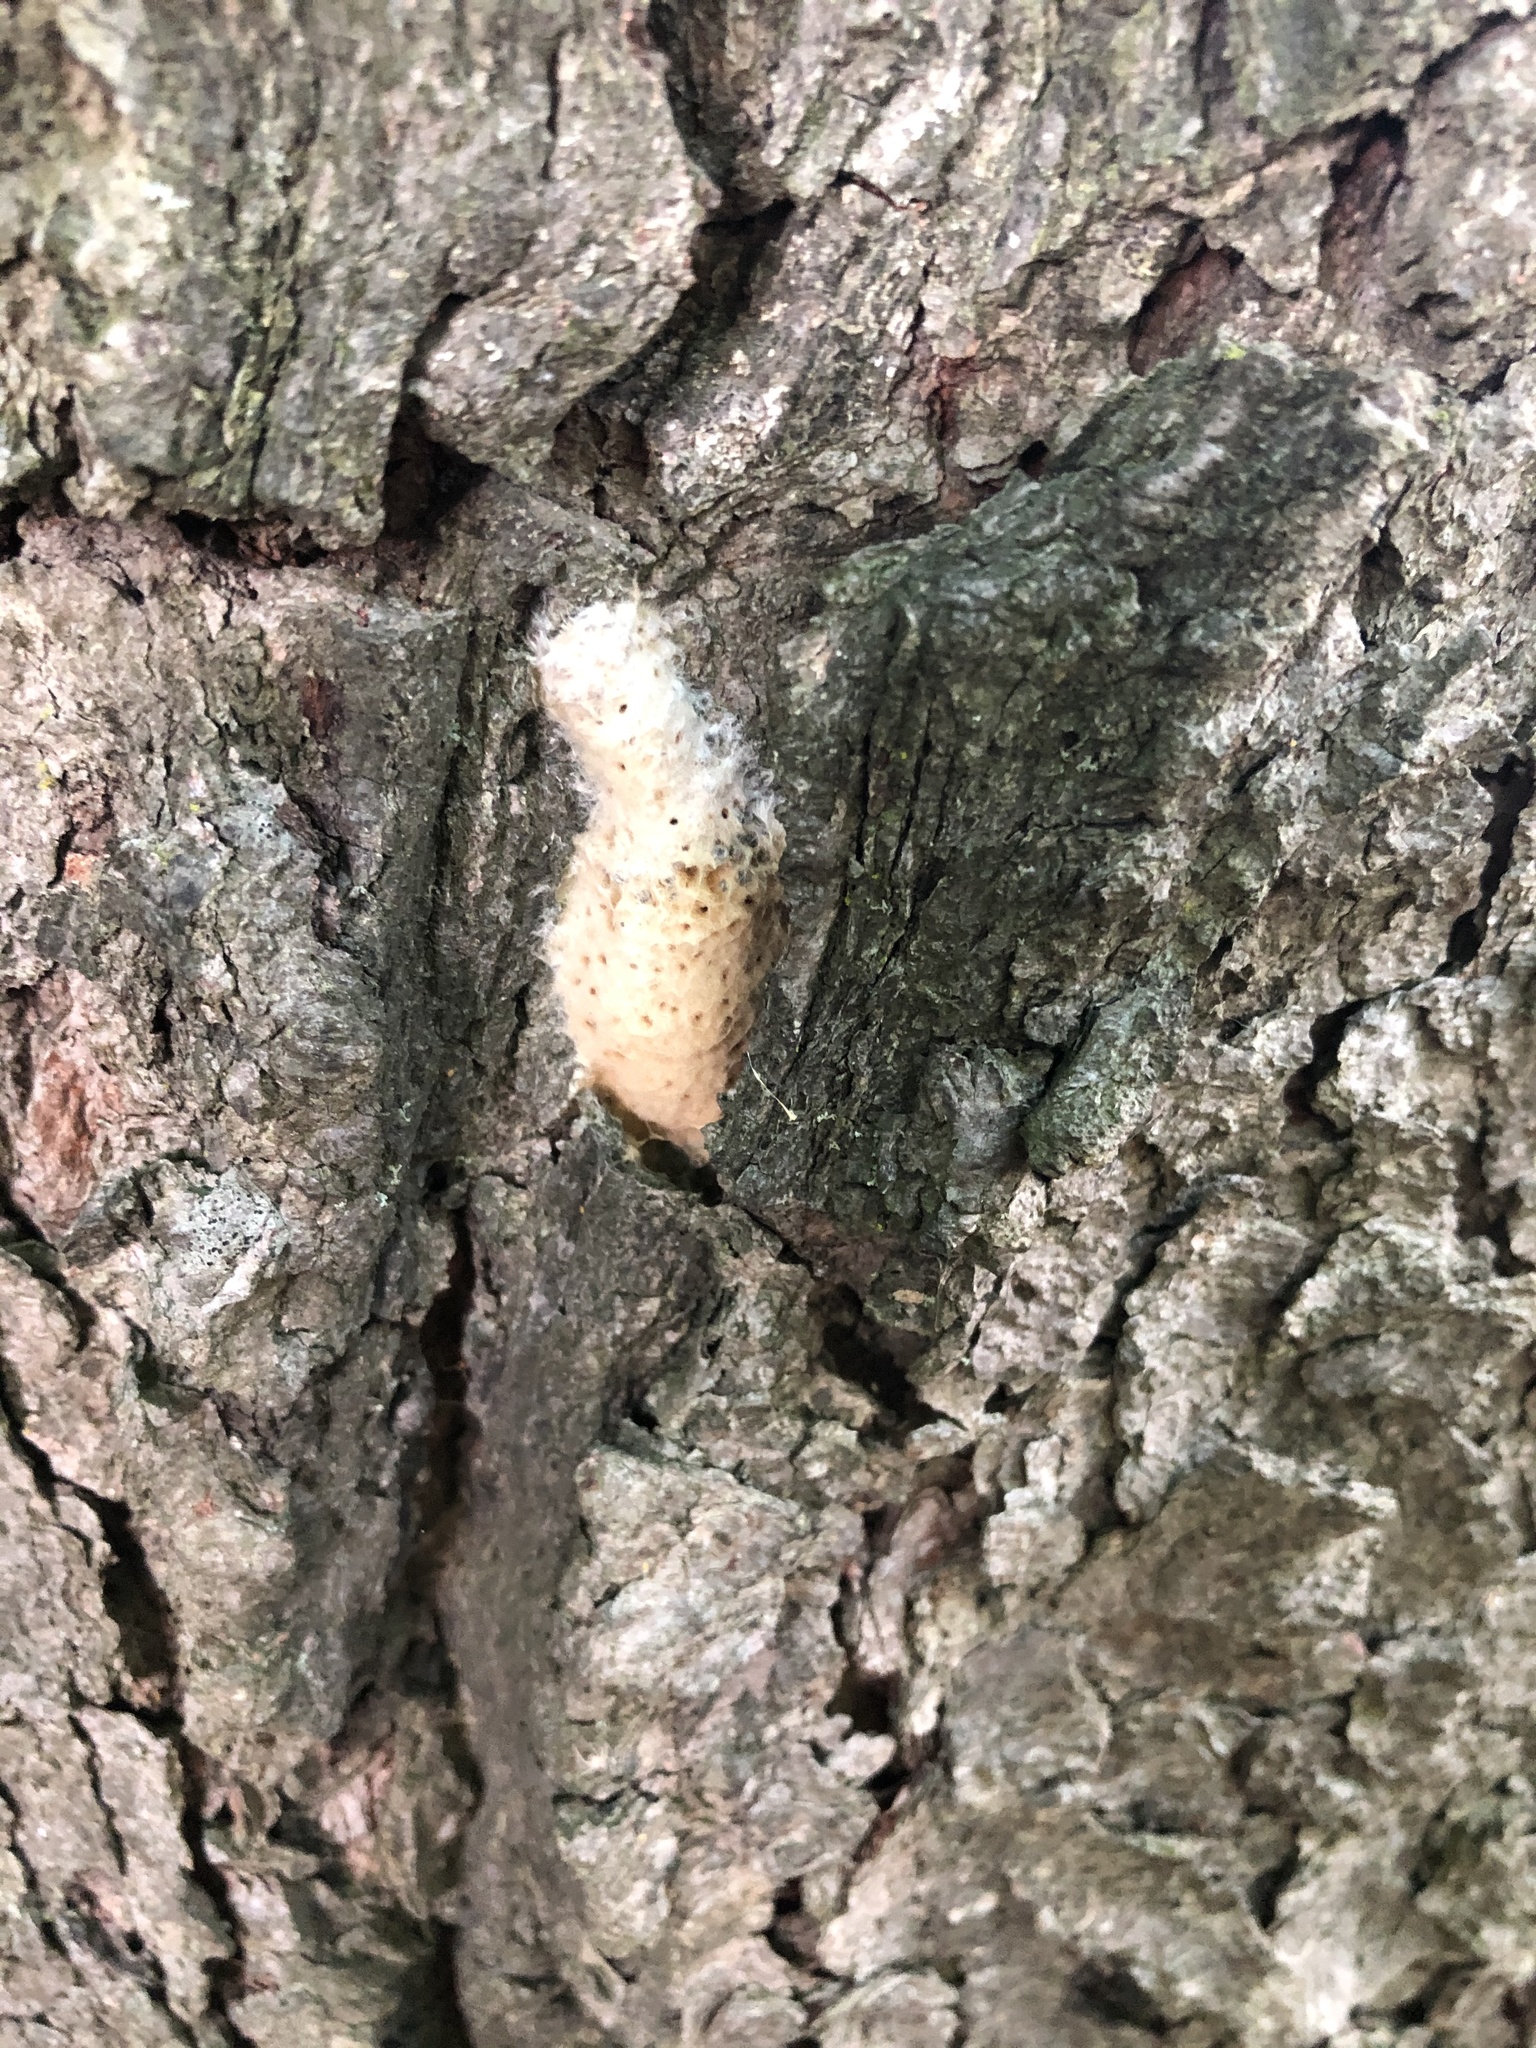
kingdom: Animalia
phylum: Arthropoda
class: Insecta
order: Lepidoptera
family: Erebidae
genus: Lymantria
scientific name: Lymantria dispar
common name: Gypsy moth
